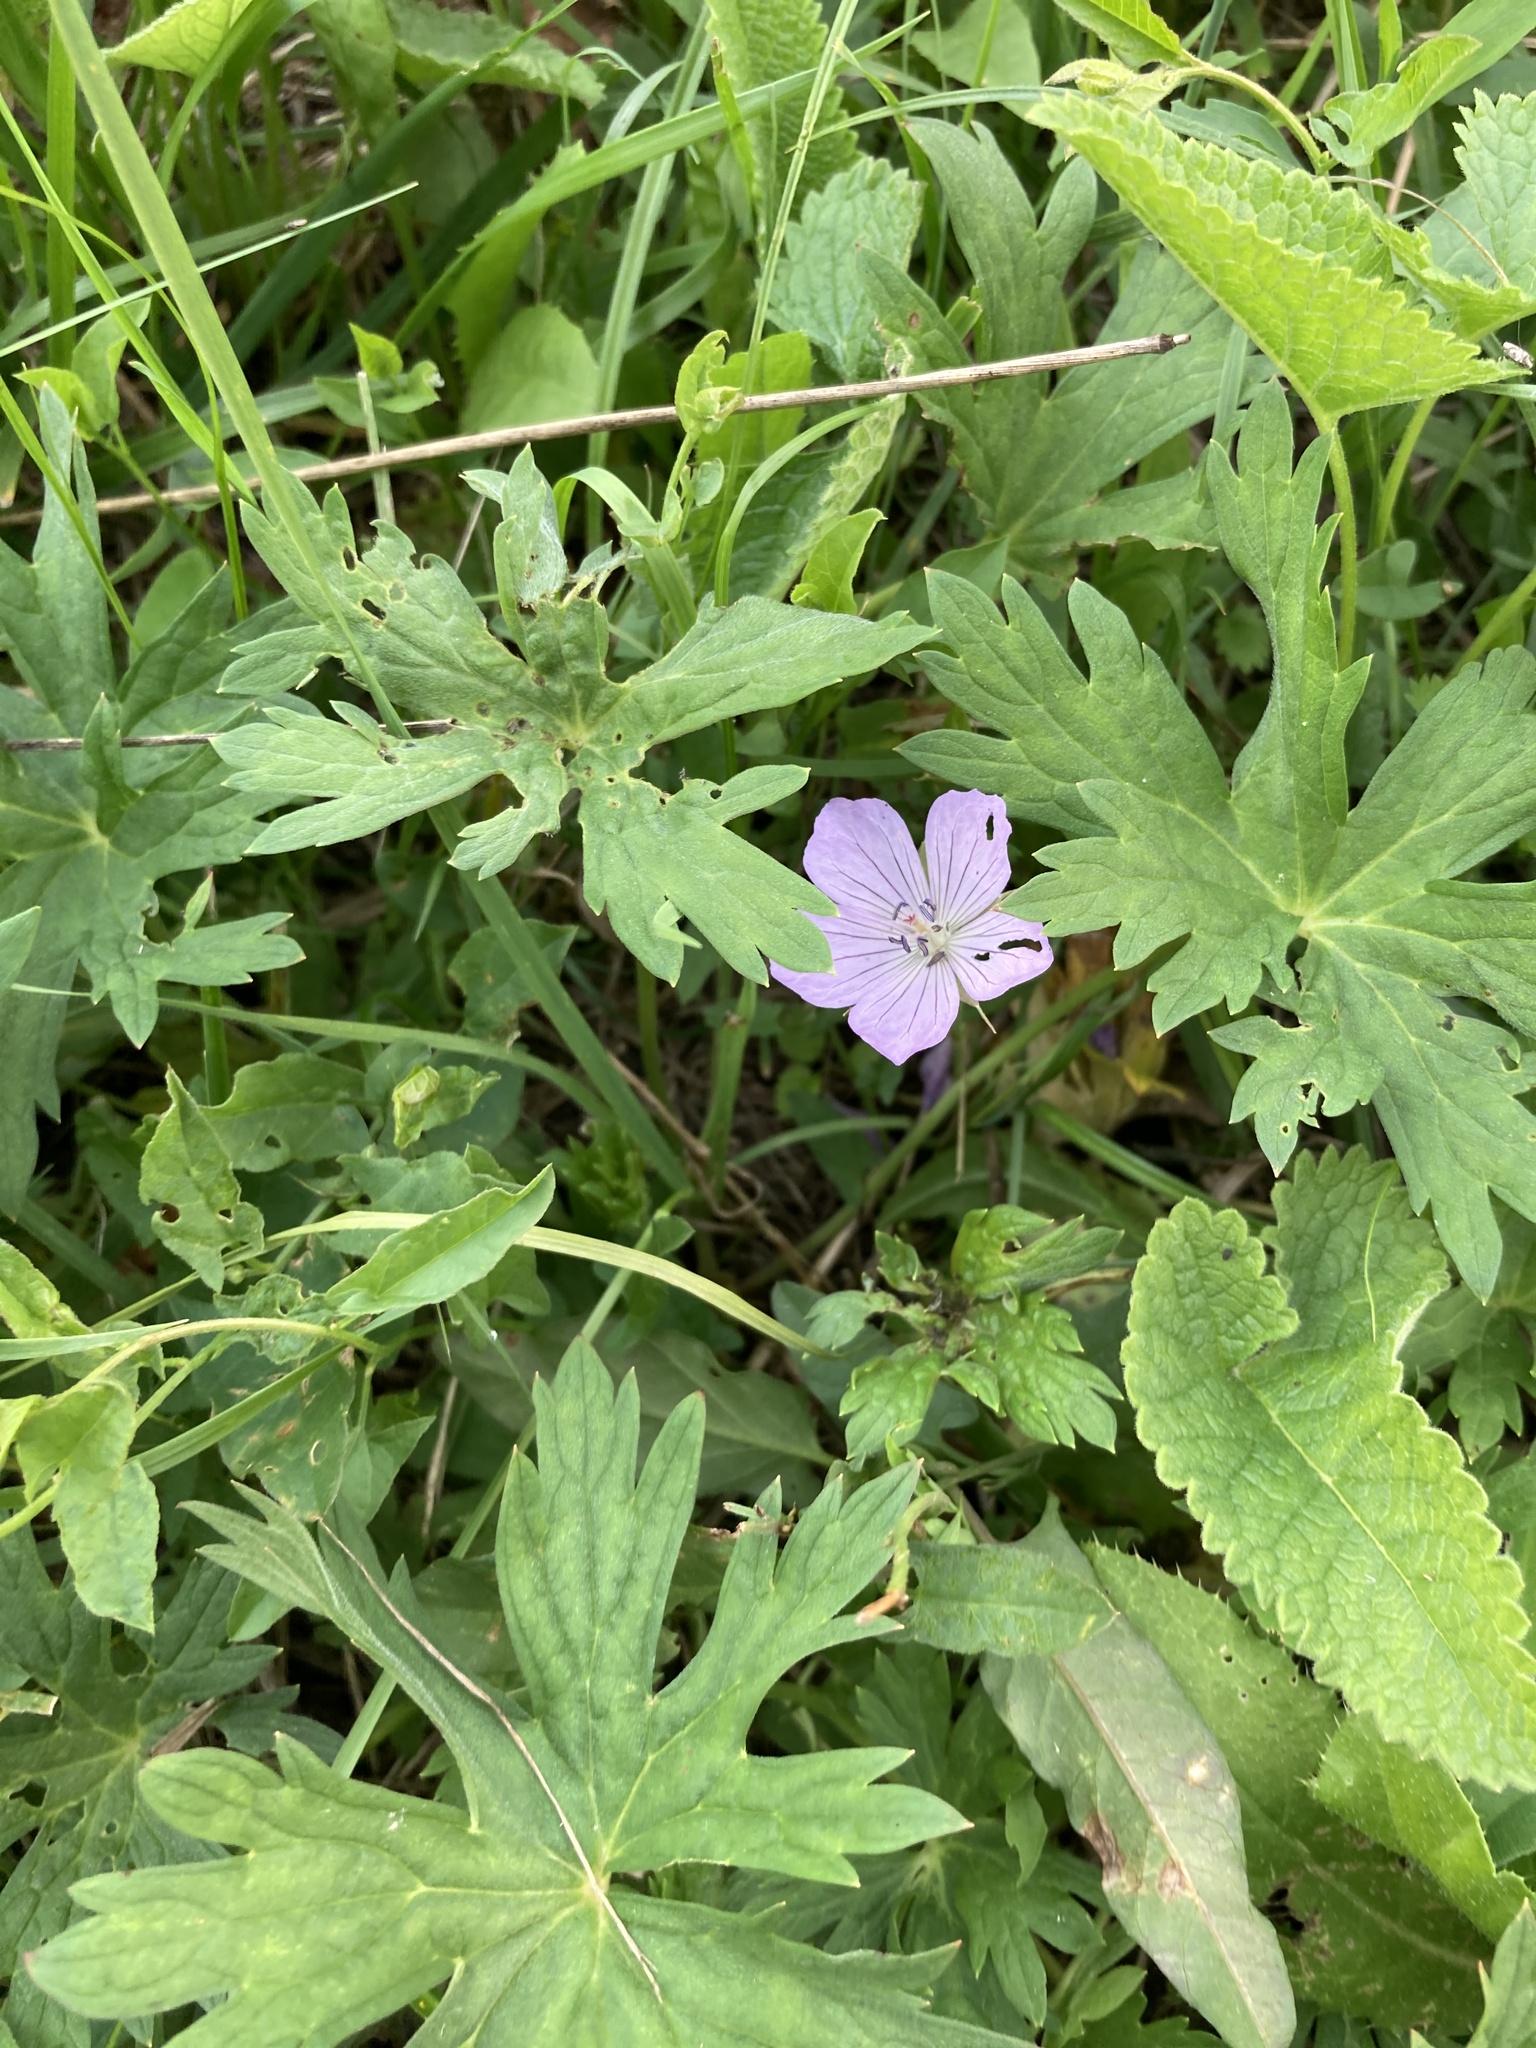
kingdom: Plantae
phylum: Tracheophyta
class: Magnoliopsida
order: Geraniales
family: Geraniaceae
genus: Geranium
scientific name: Geranium collinum
